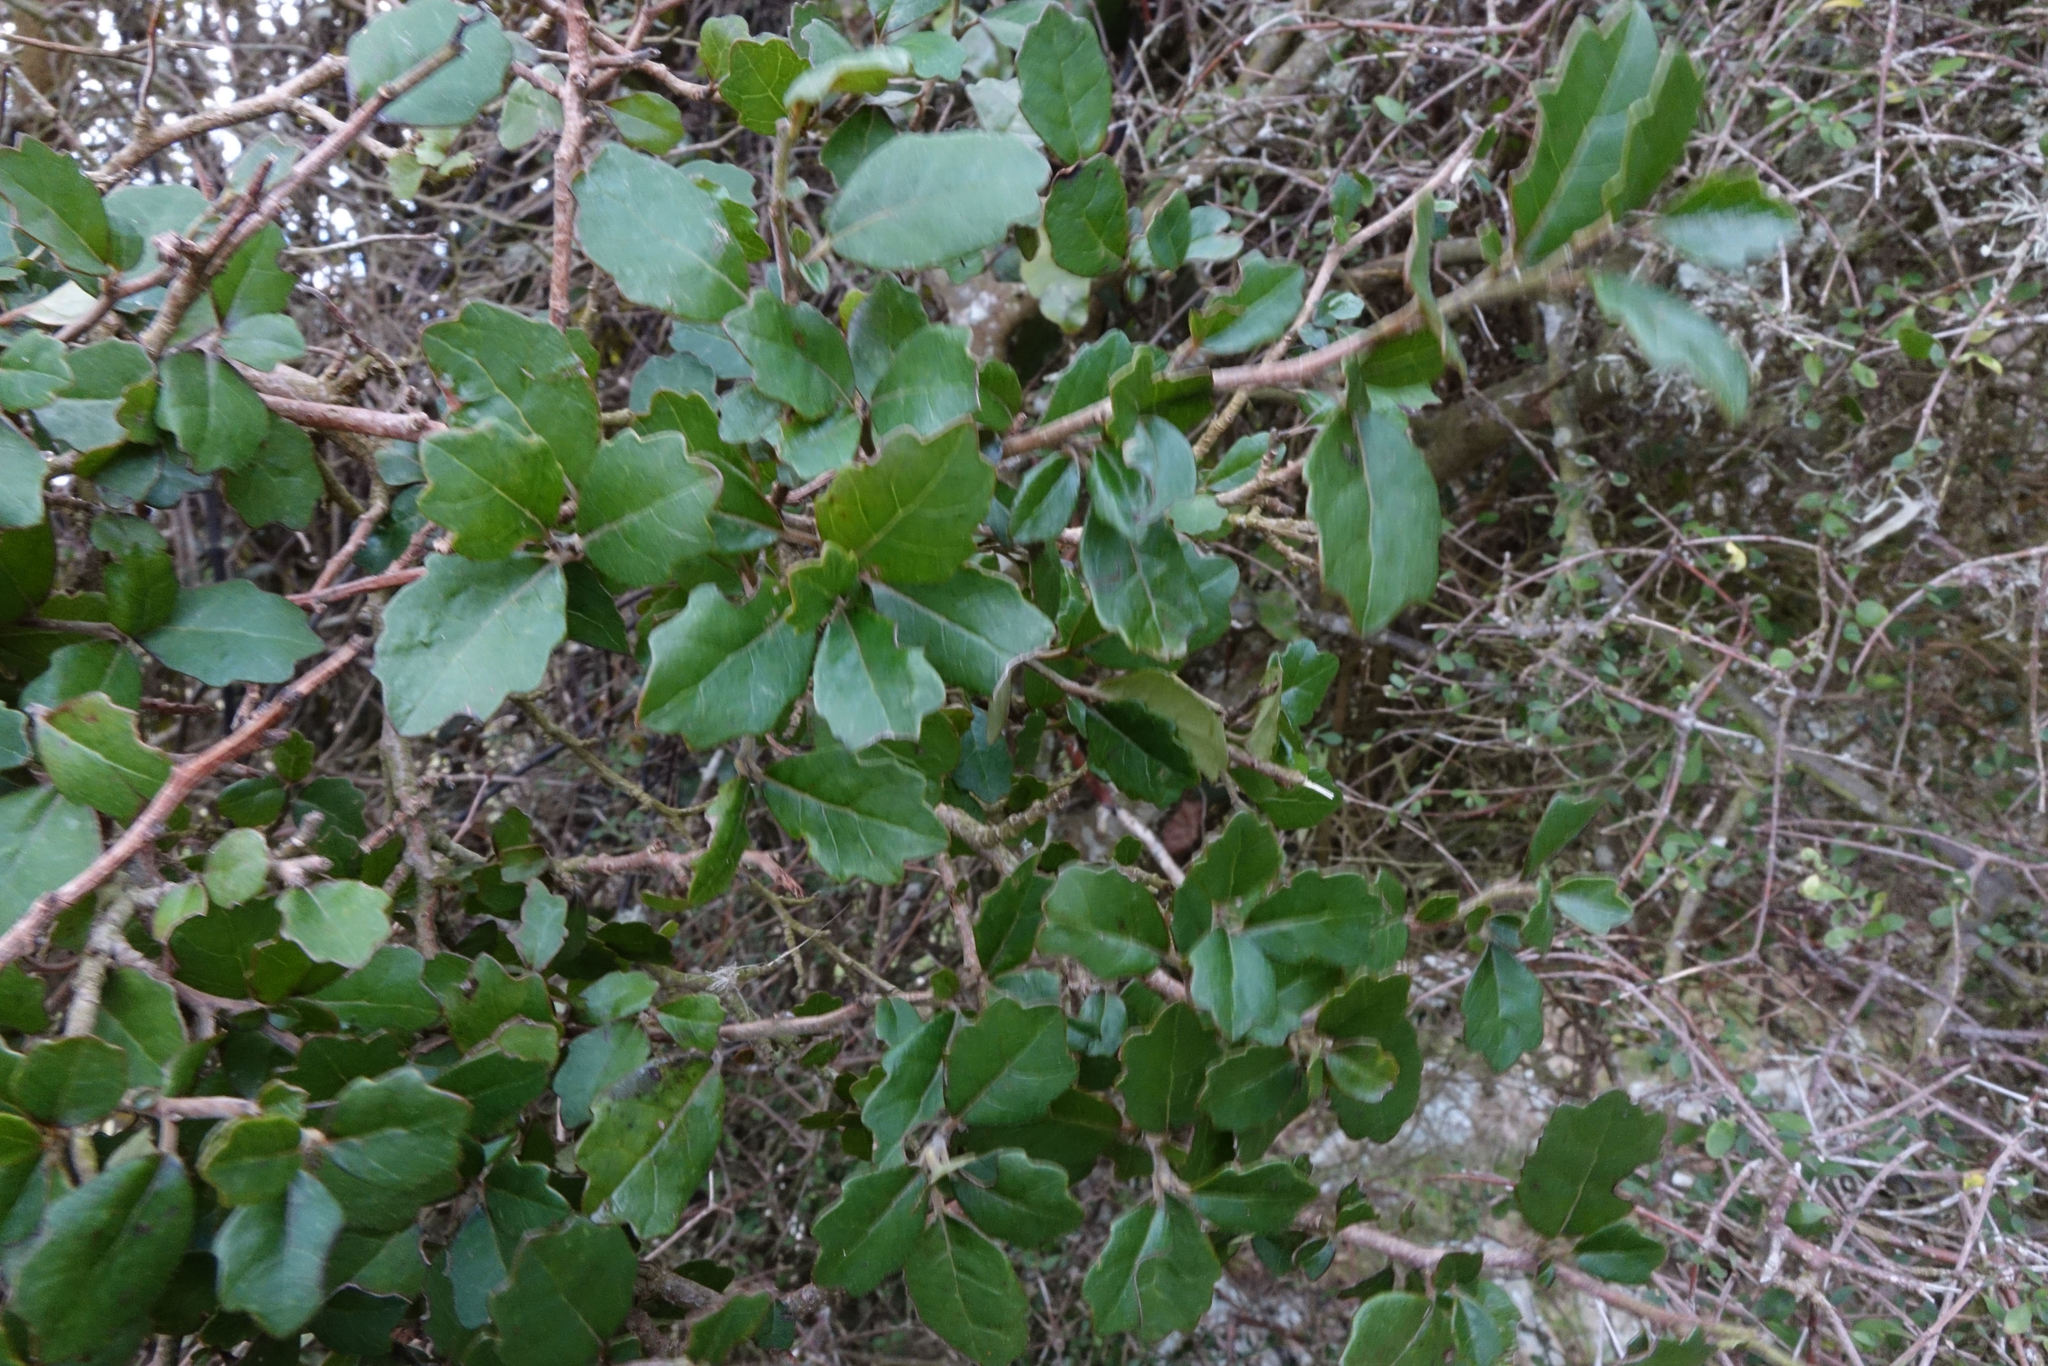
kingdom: Plantae
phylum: Tracheophyta
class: Magnoliopsida
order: Apiales
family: Pennantiaceae
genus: Pennantia
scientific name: Pennantia corymbosa
